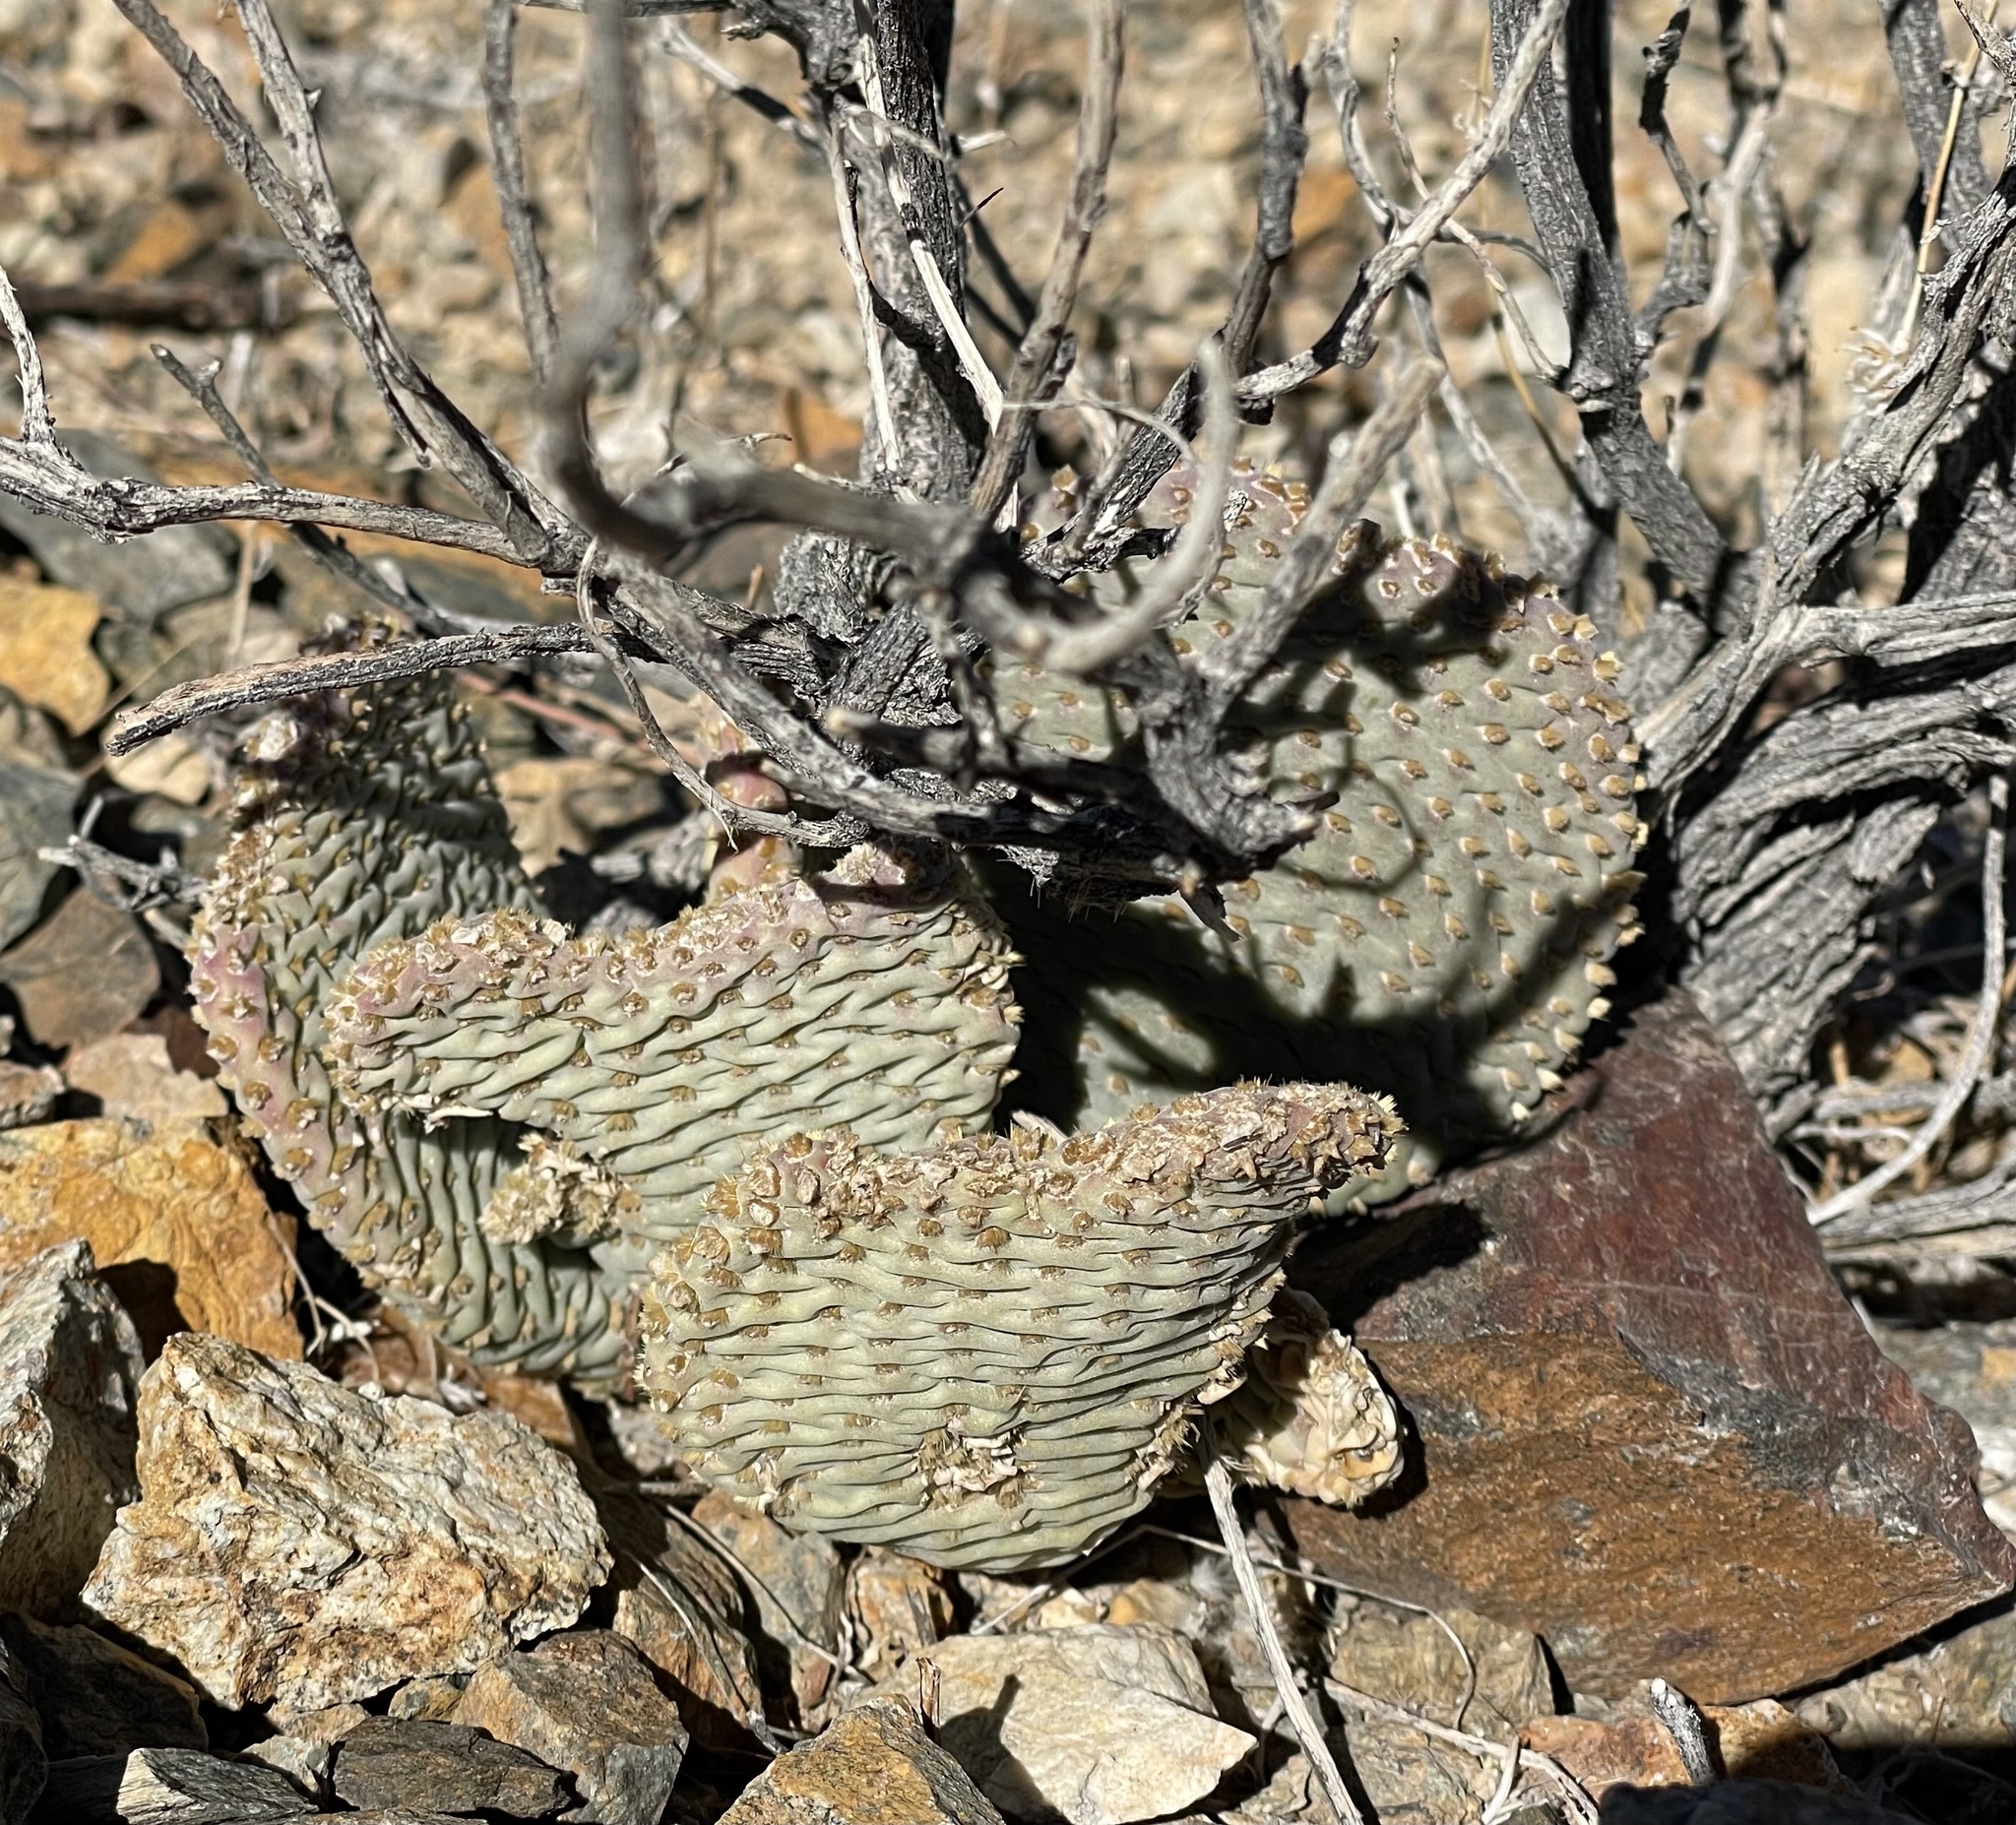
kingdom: Plantae
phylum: Tracheophyta
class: Magnoliopsida
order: Caryophyllales
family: Cactaceae
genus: Opuntia
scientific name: Opuntia basilaris
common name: Beavertail prickly-pear
